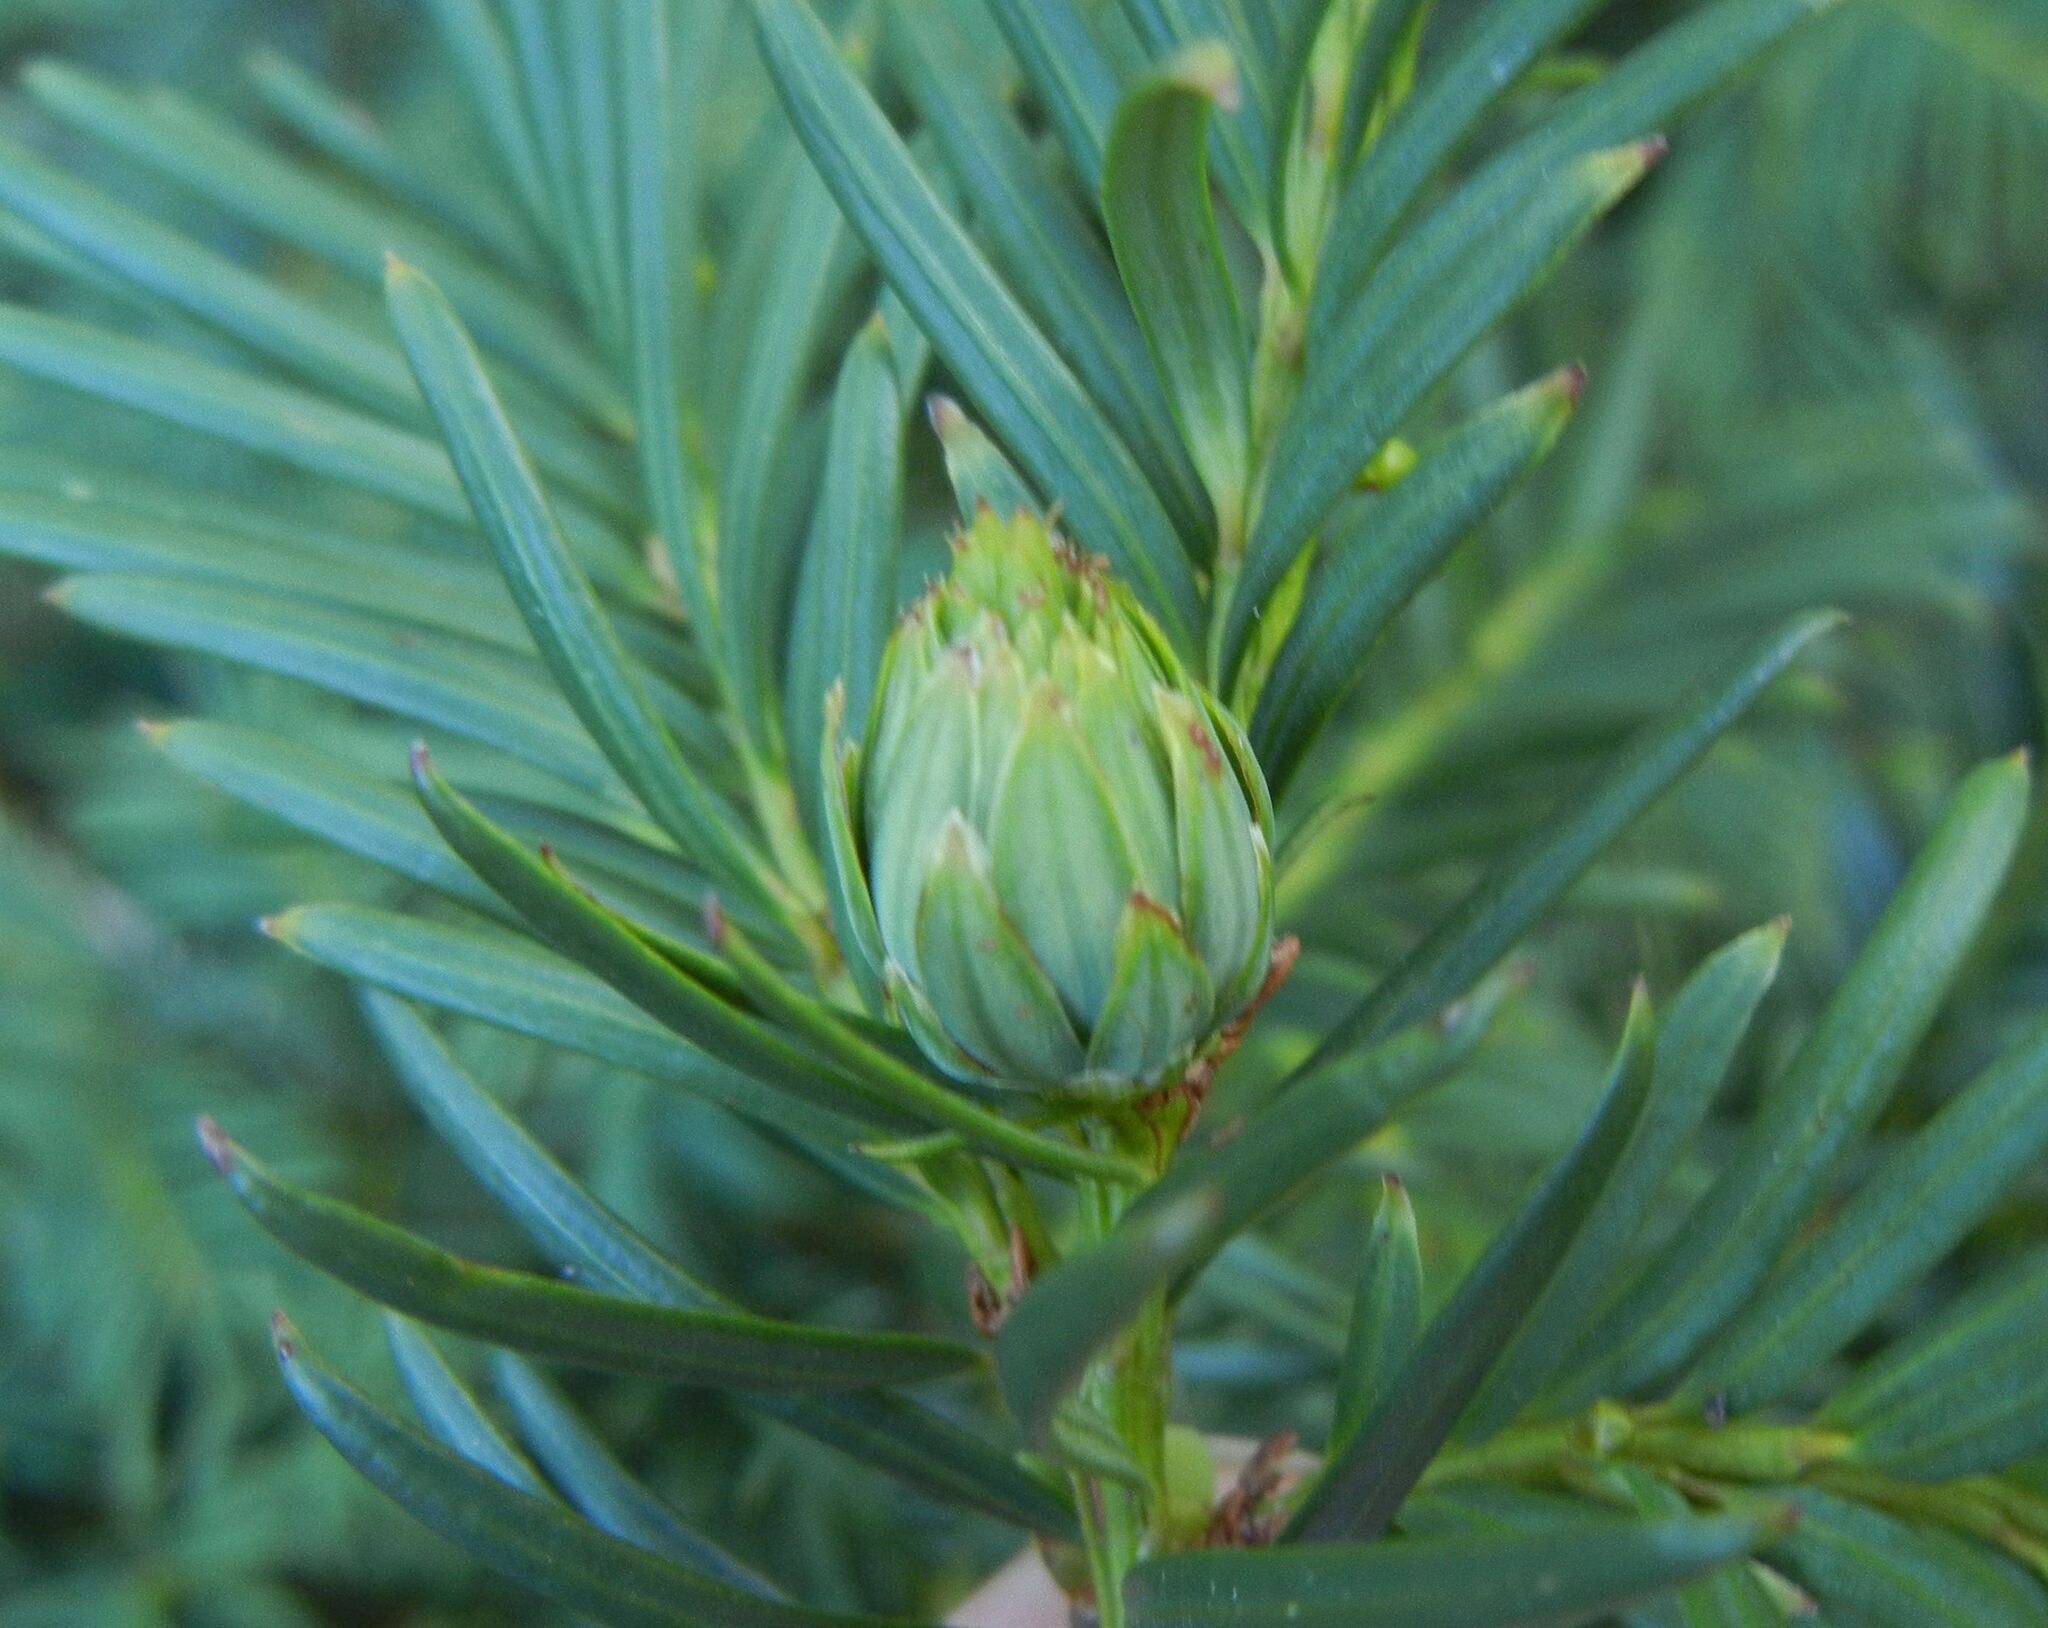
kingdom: Animalia
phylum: Arthropoda
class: Insecta
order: Diptera
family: Cecidomyiidae
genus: Taxomyia
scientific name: Taxomyia taxi
